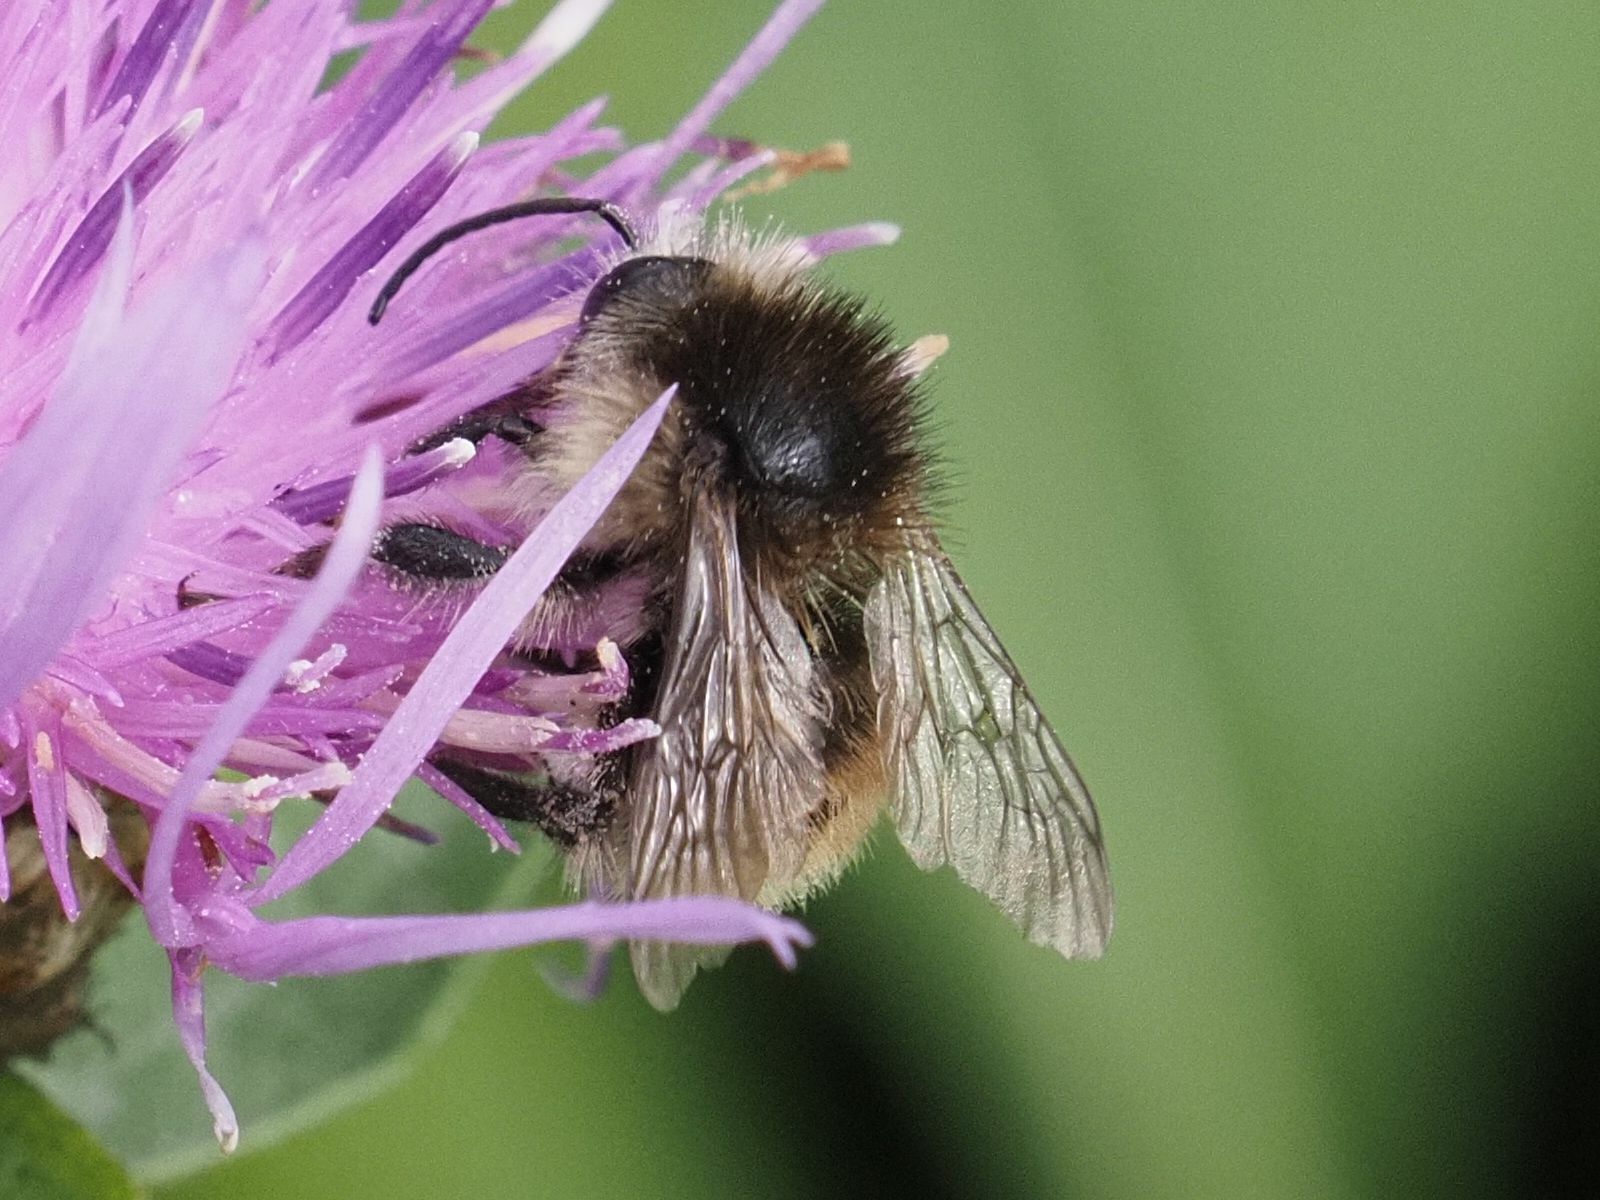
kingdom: Animalia
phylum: Arthropoda
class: Insecta
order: Hymenoptera
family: Apidae
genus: Bombus
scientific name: Bombus humilis
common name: Brown-banded carder-bee
